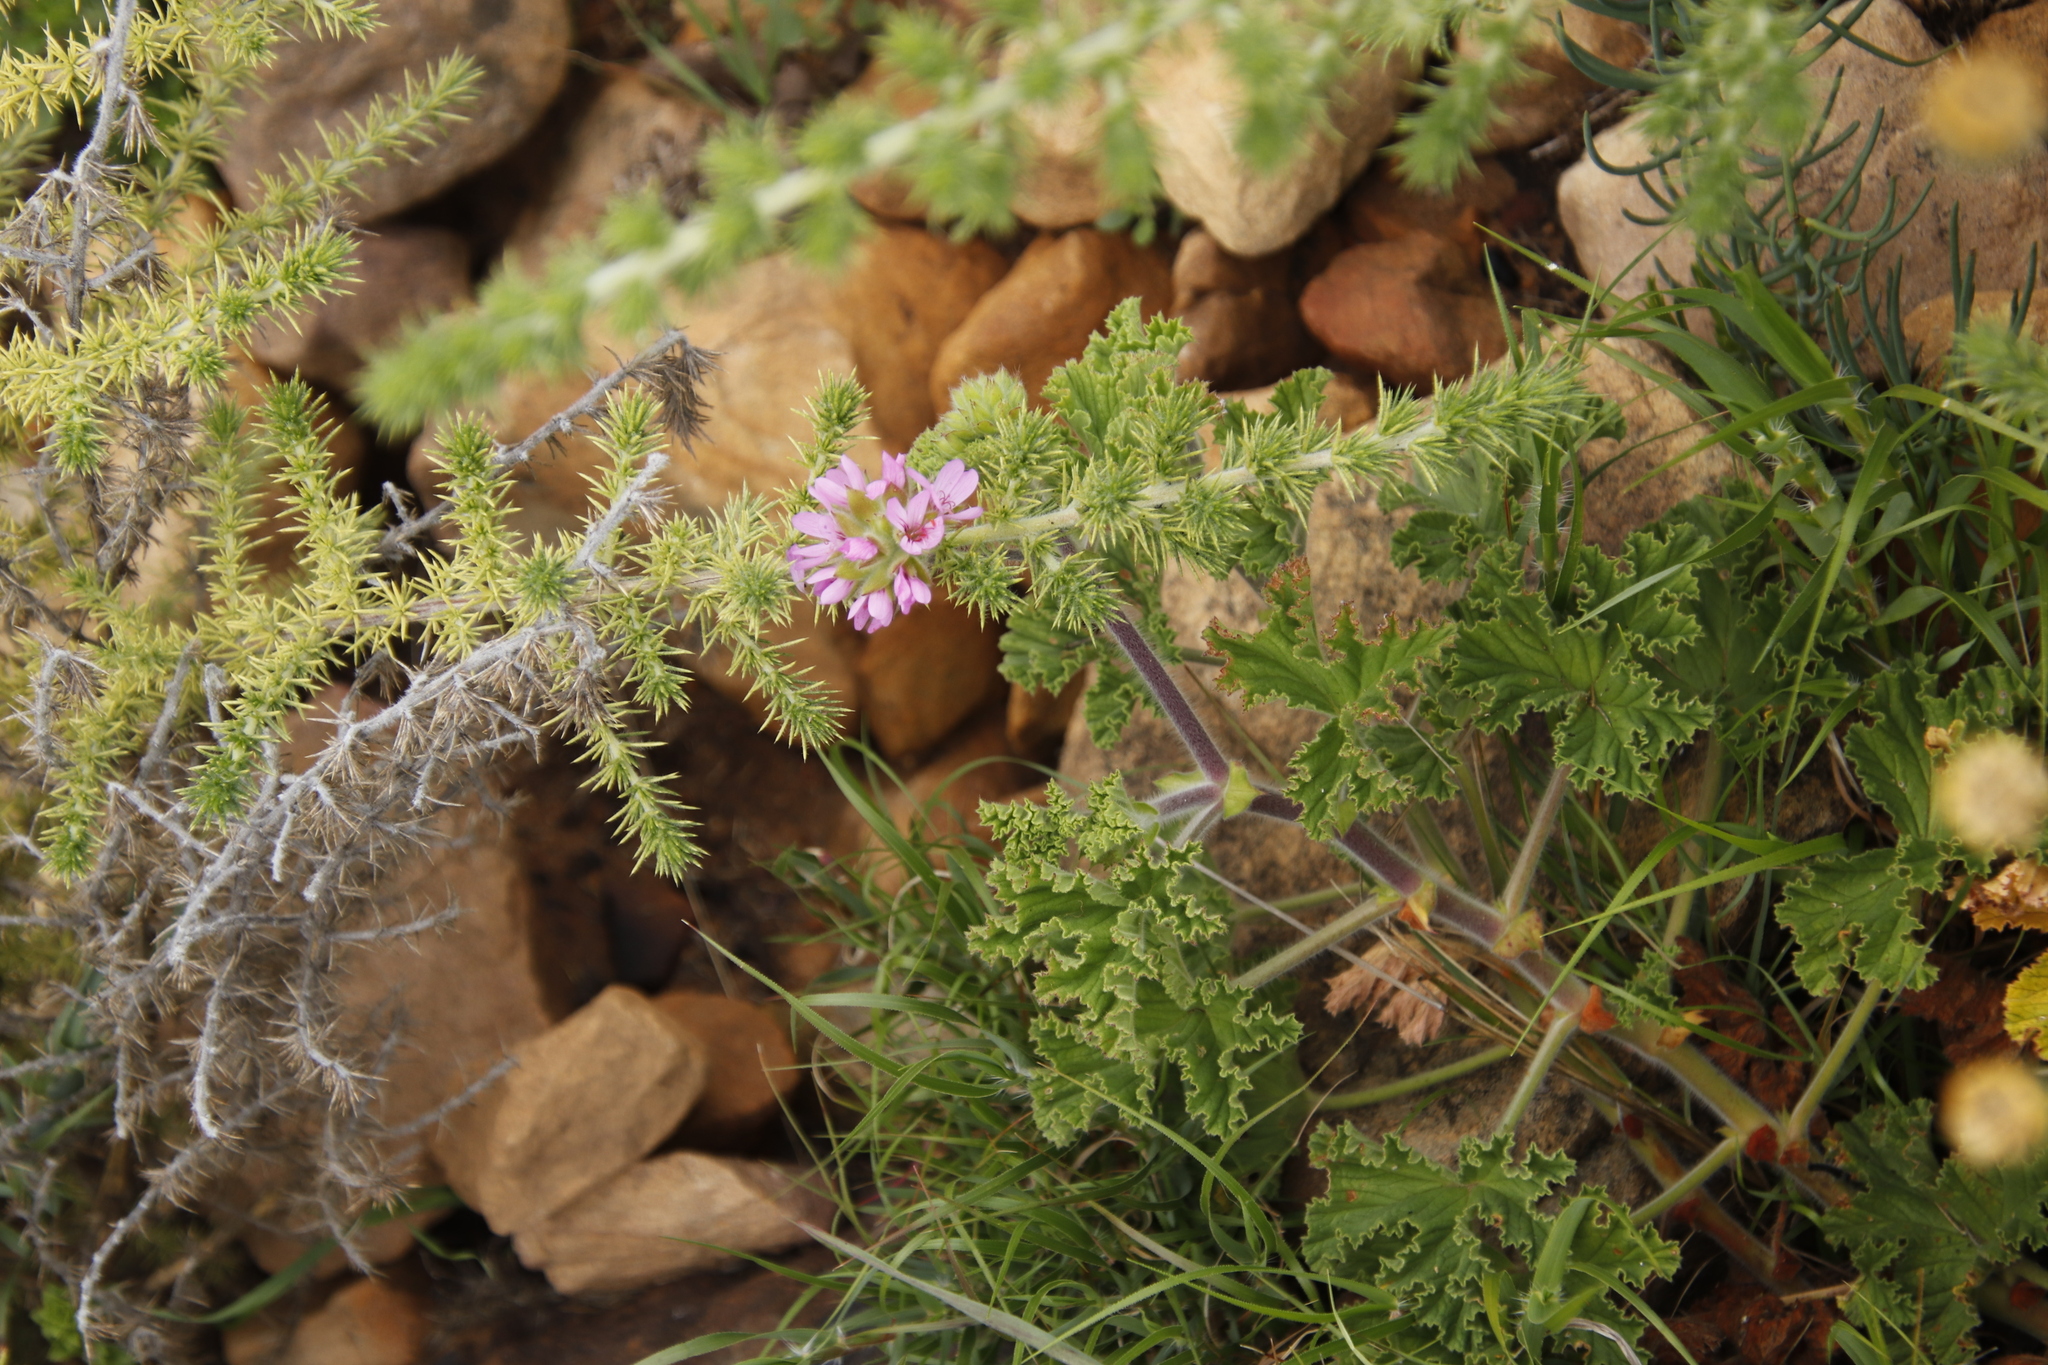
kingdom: Plantae
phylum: Tracheophyta
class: Magnoliopsida
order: Geraniales
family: Geraniaceae
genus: Pelargonium
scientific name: Pelargonium capitatum
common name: Rose scented geranium
